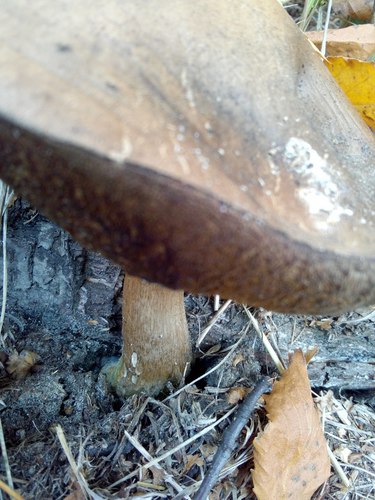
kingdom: Fungi
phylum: Basidiomycota
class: Agaricomycetes
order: Boletales
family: Boletaceae
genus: Leccinum
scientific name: Leccinum
